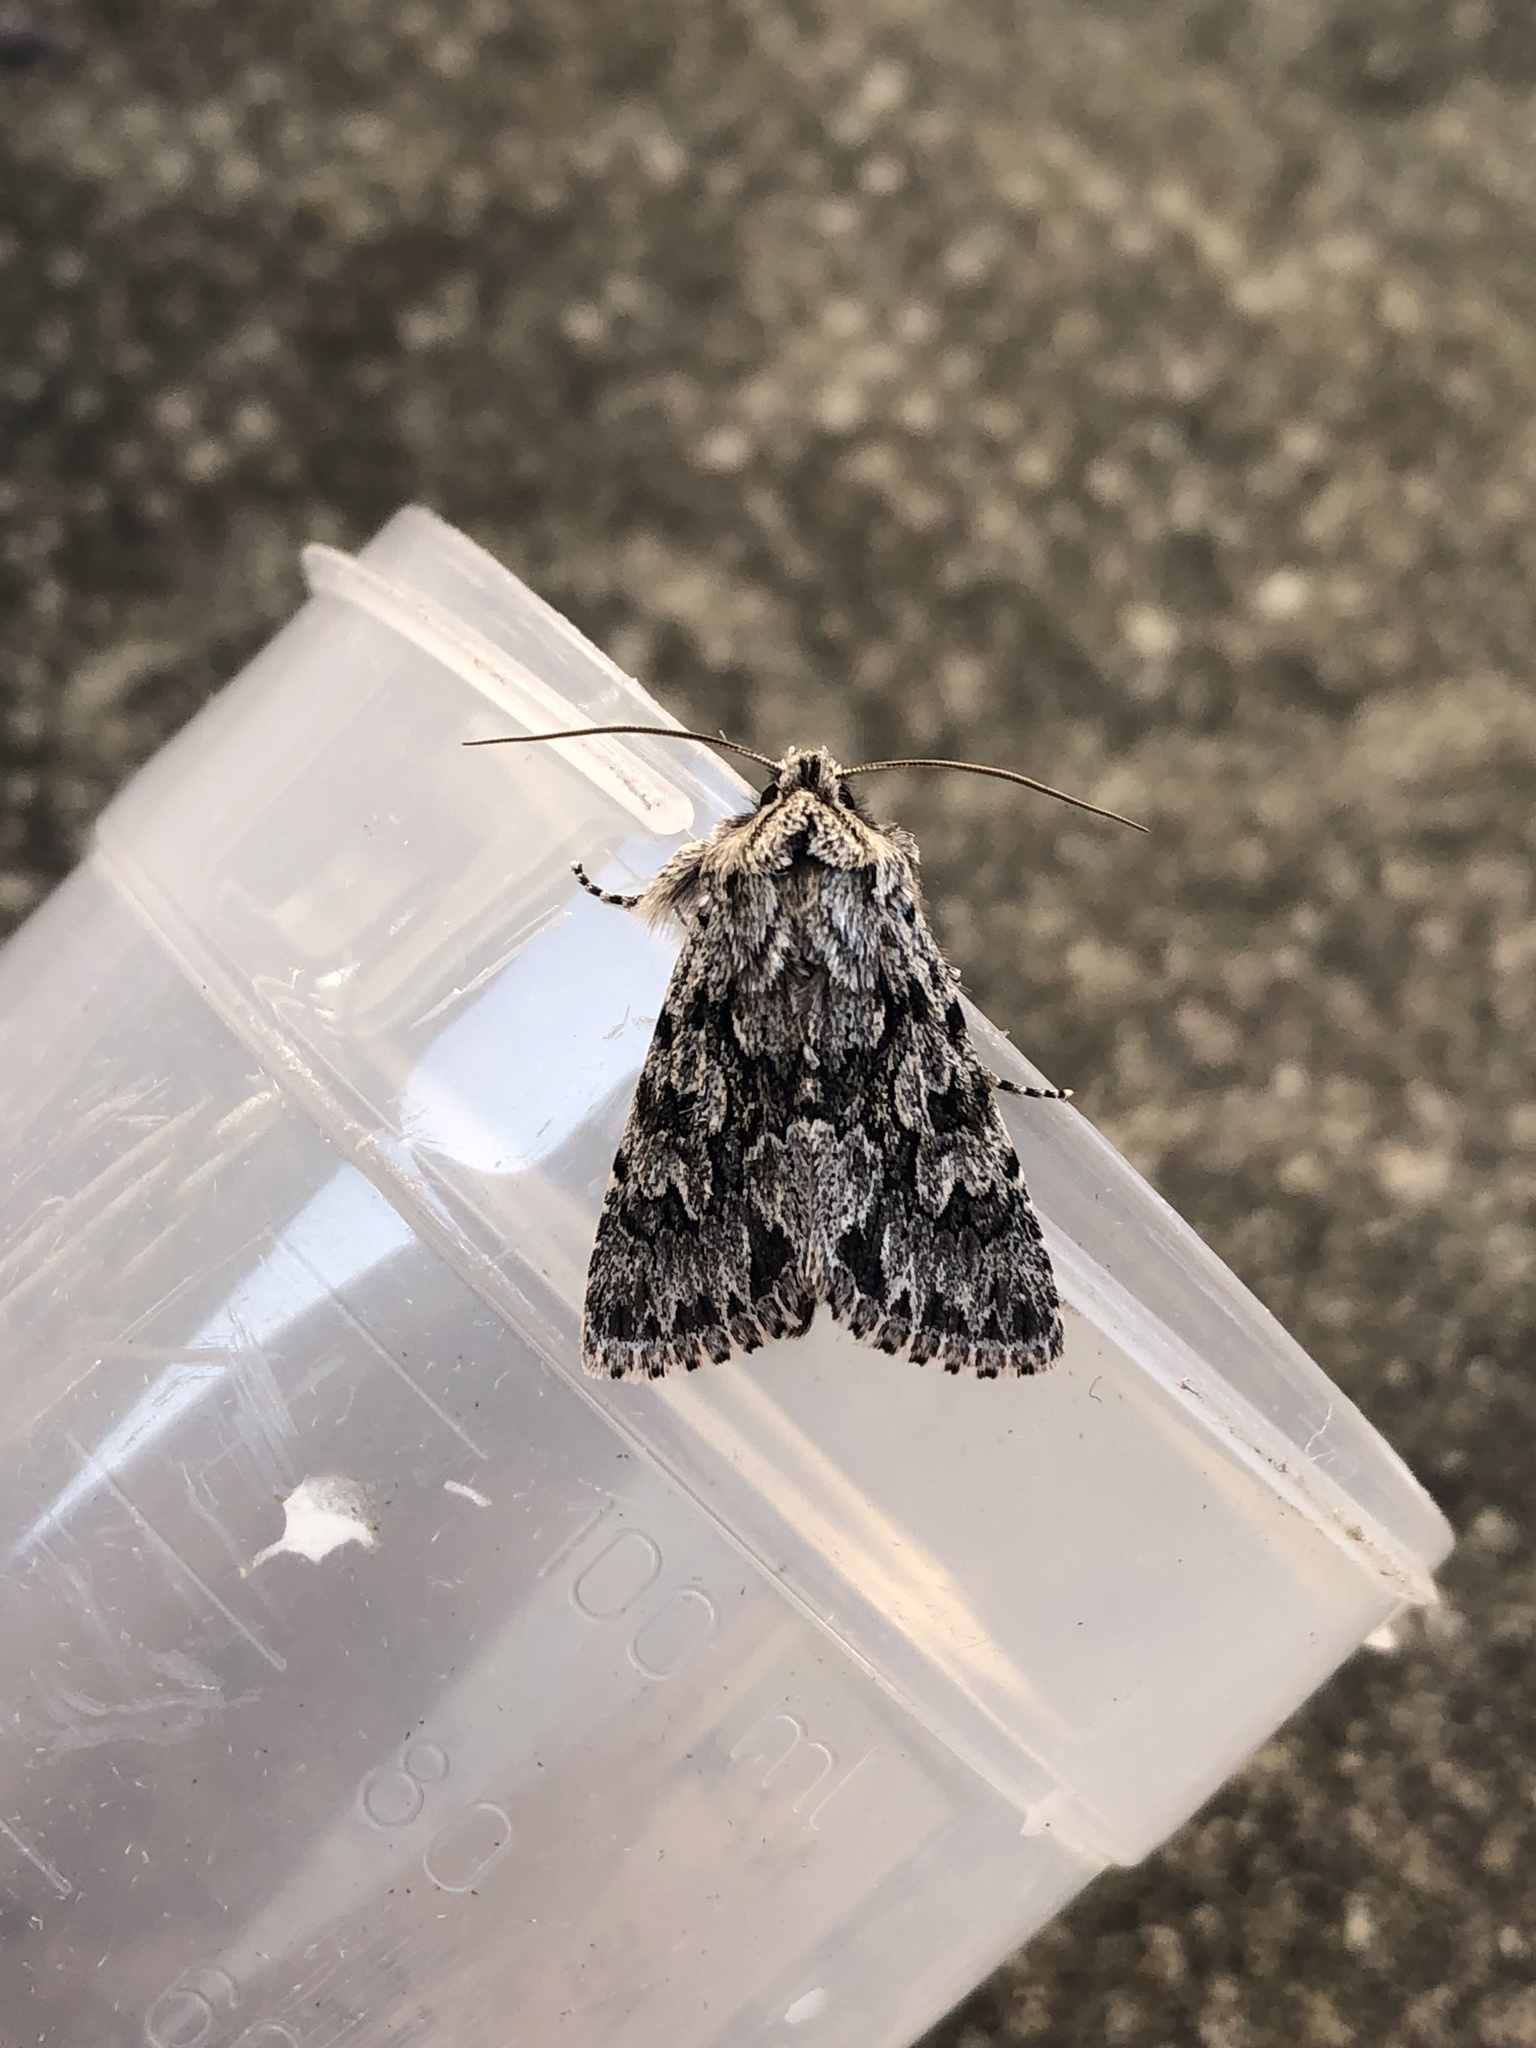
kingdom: Animalia
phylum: Arthropoda
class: Insecta
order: Lepidoptera
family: Noctuidae
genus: Xylocampa
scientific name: Xylocampa areola
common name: Early grey
